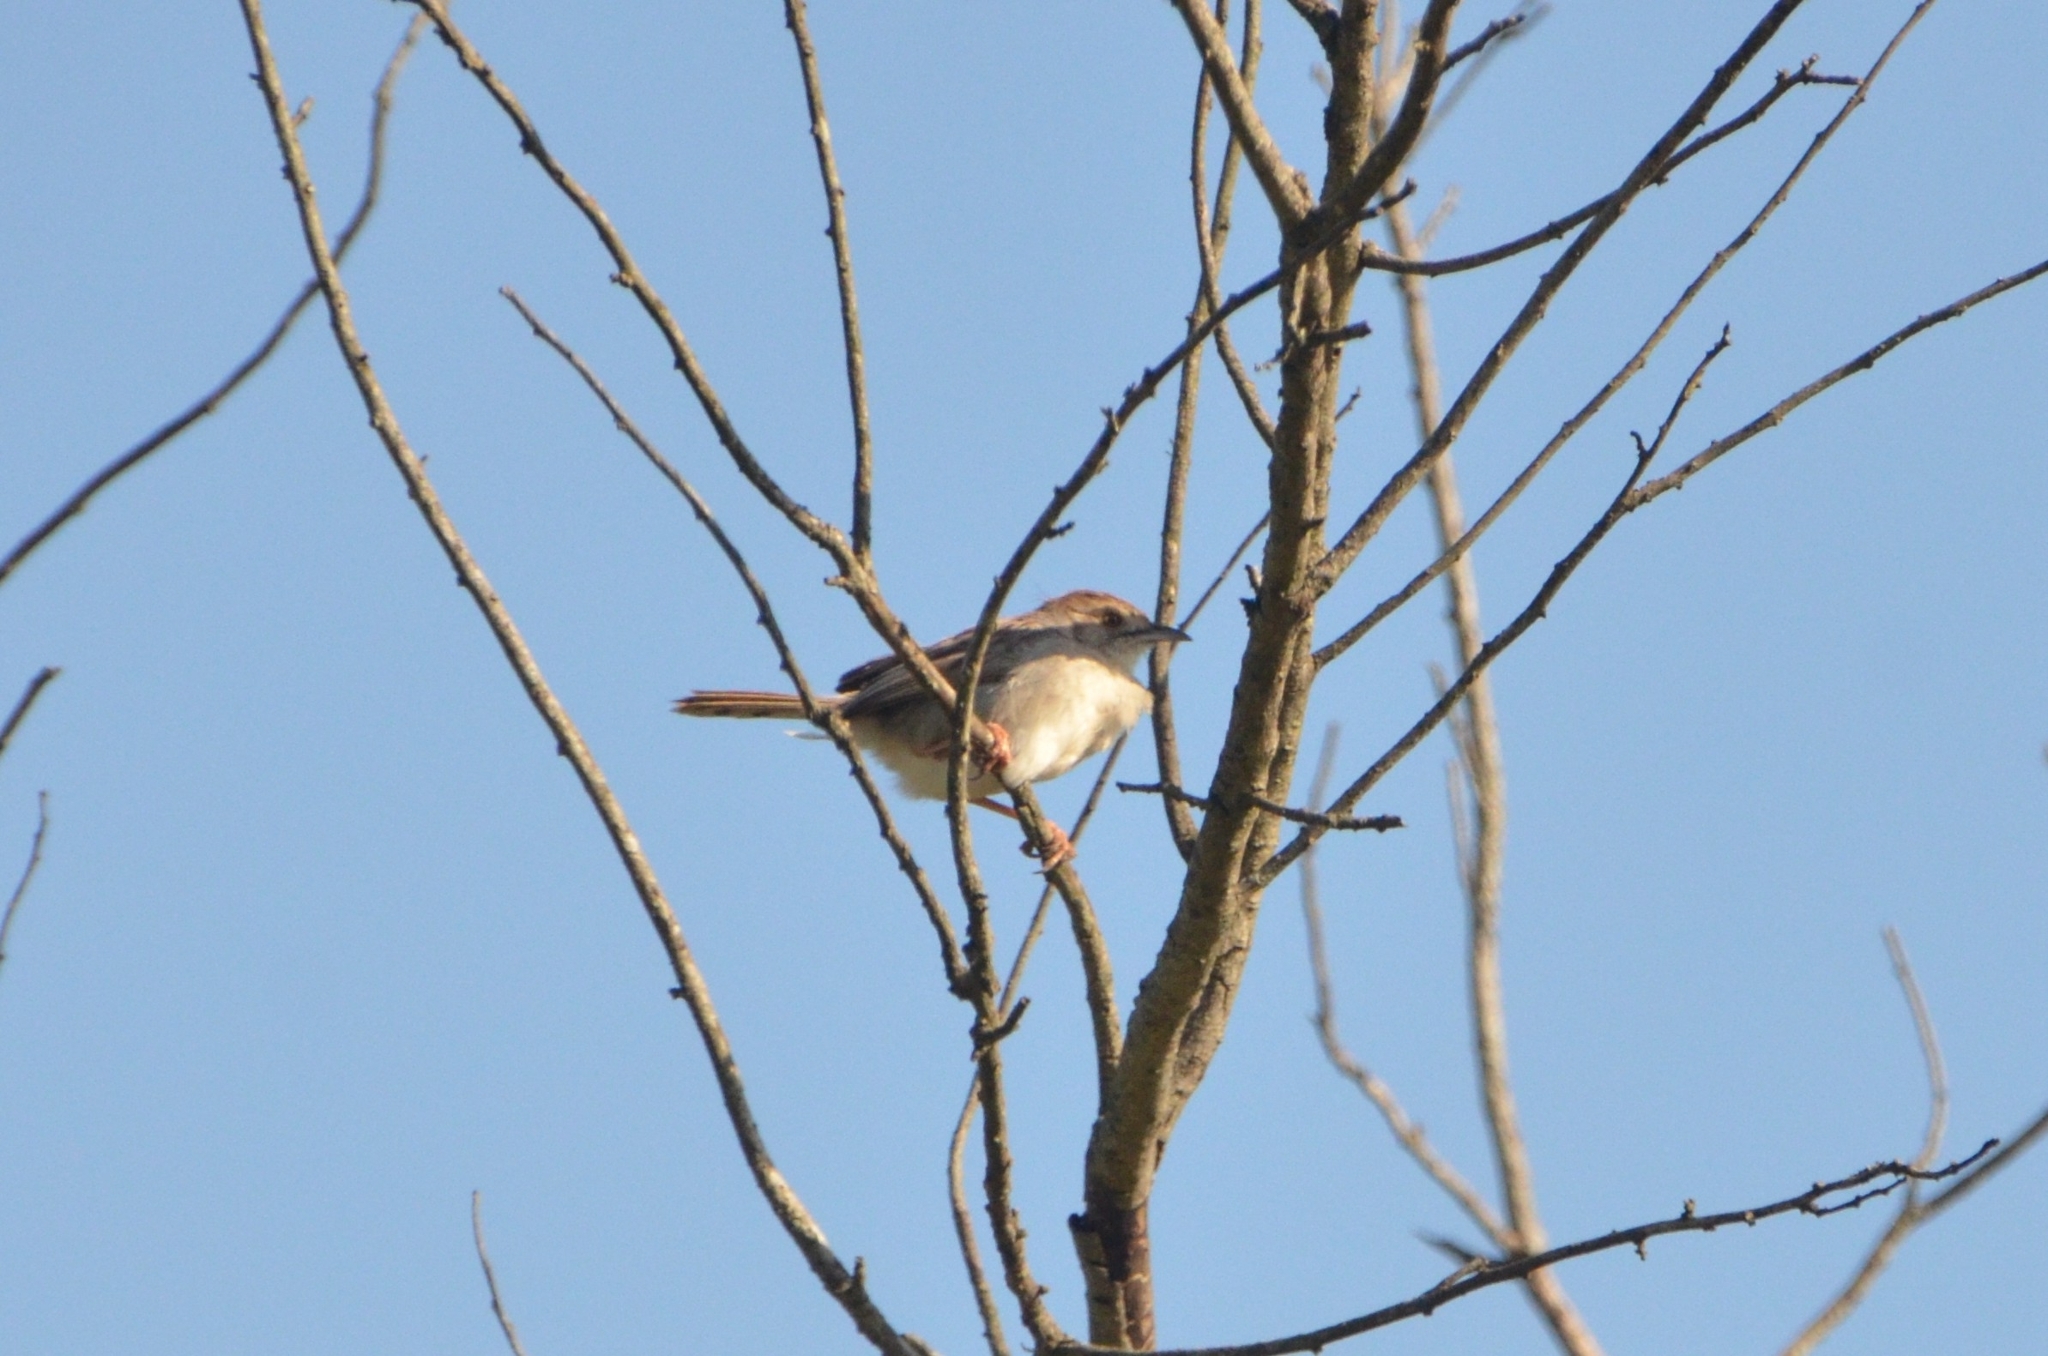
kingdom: Animalia
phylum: Chordata
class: Aves
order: Passeriformes
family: Cisticolidae
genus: Cisticola
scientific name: Cisticola chiniana
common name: Rattling cisticola
